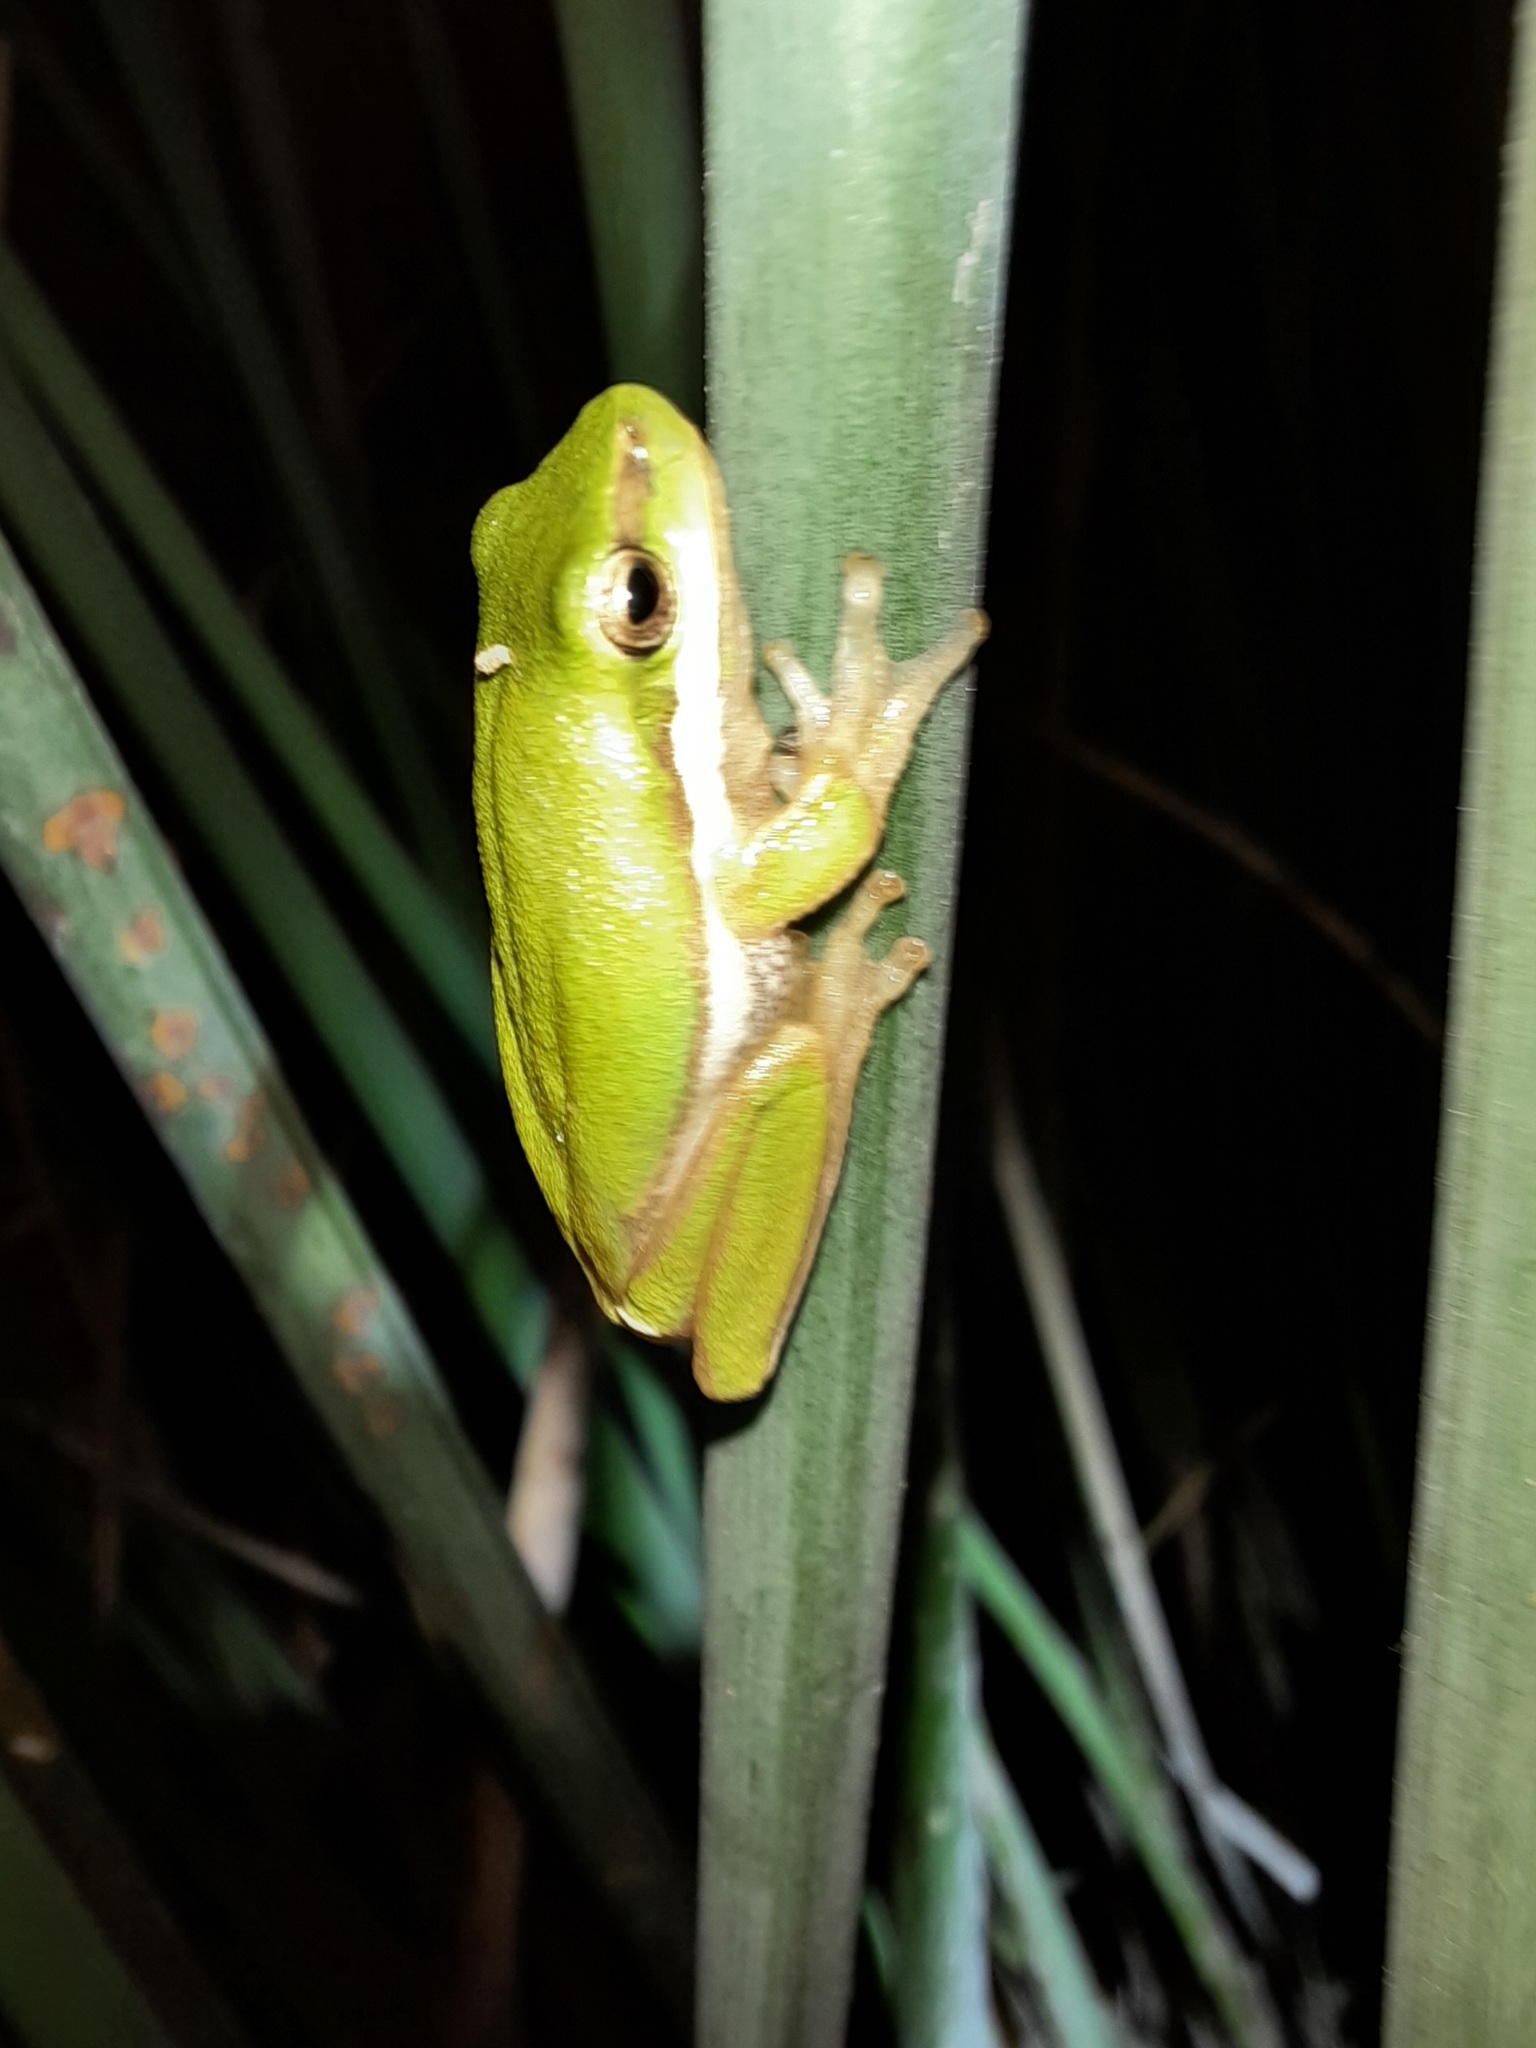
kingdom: Animalia
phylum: Chordata
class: Amphibia
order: Anura
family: Pelodryadidae
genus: Litoria
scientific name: Litoria fallax
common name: Eastern dwarf treefrog
